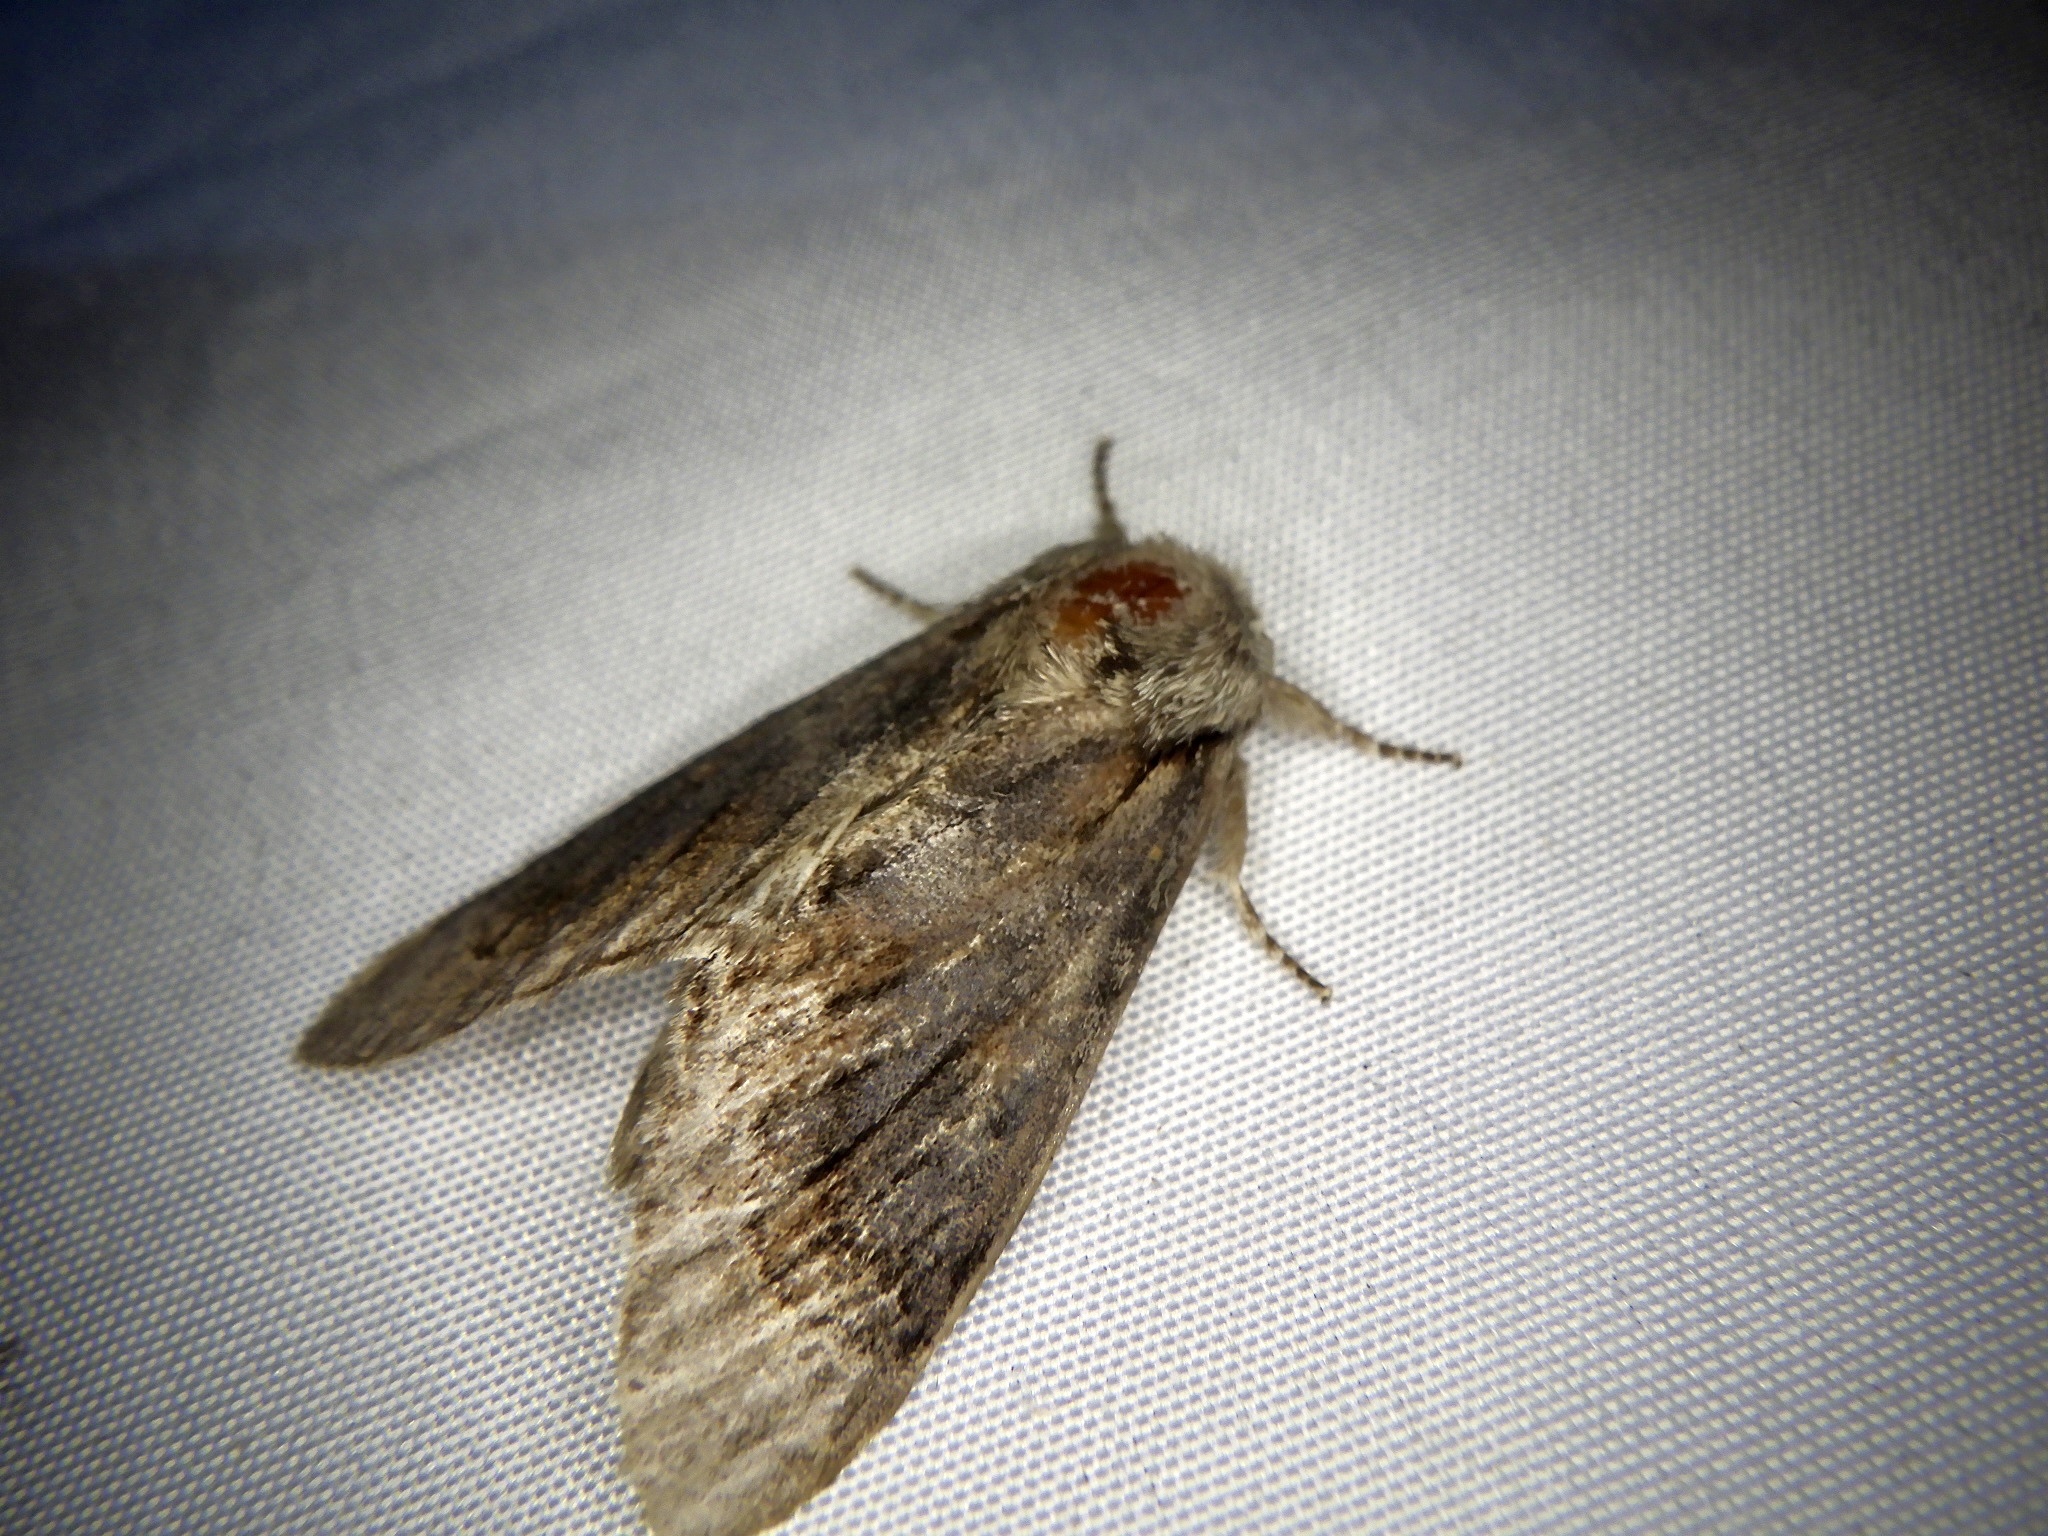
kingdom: Animalia
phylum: Arthropoda
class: Insecta
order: Lepidoptera
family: Notodontidae
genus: Fentonia
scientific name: Fentonia ocypete
